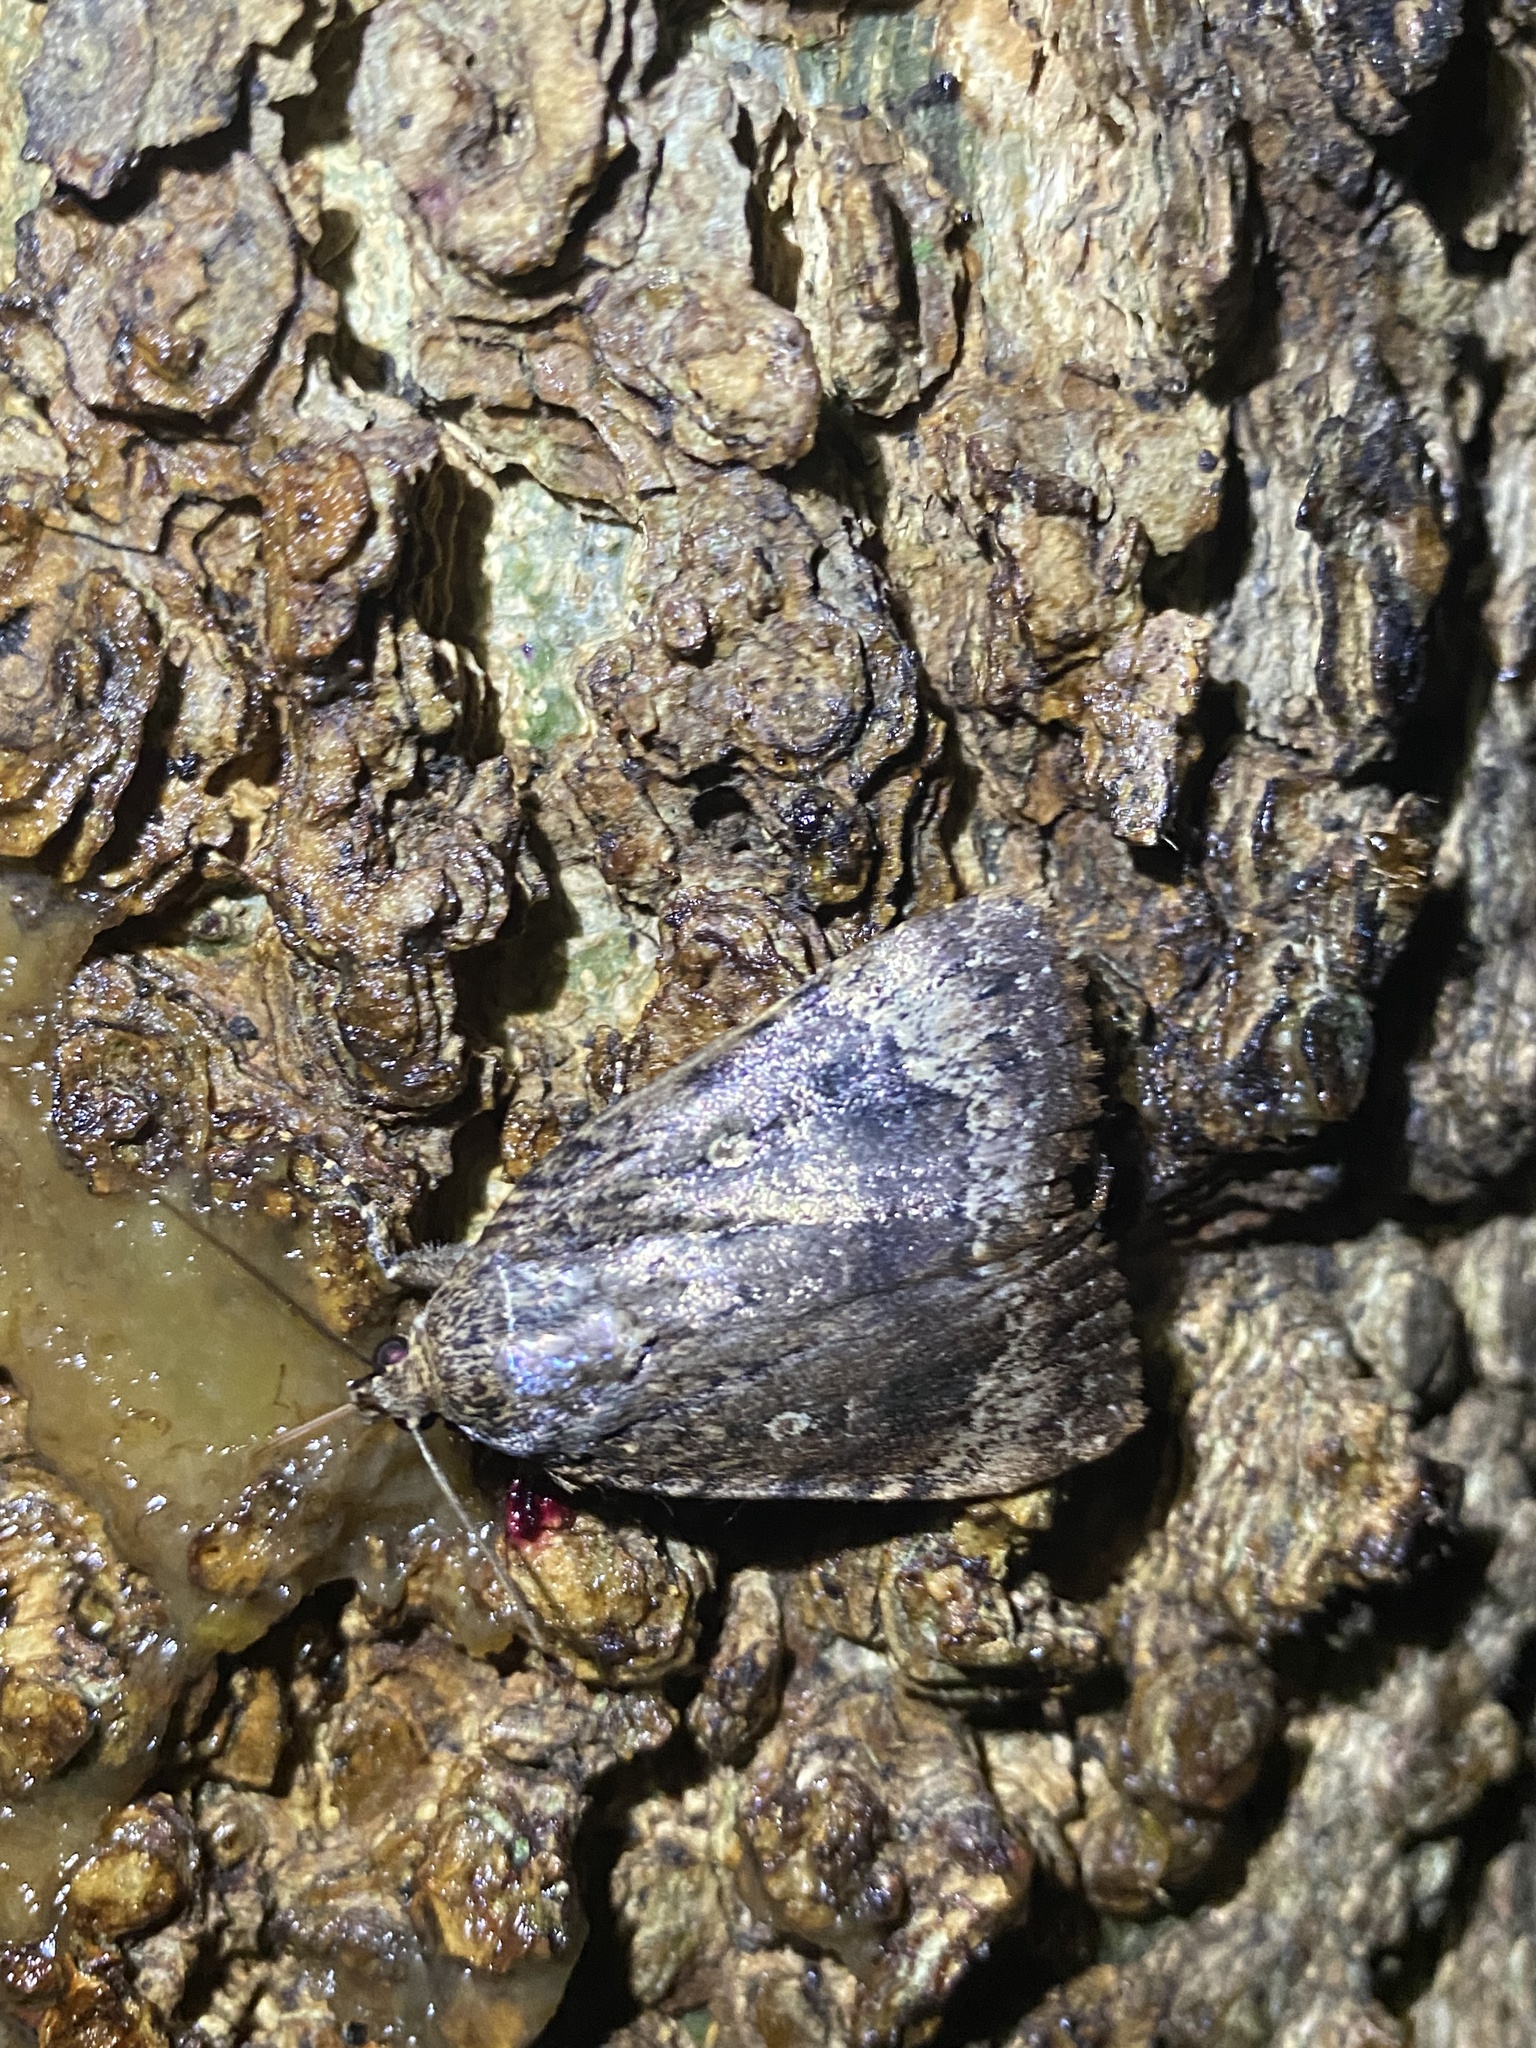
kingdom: Animalia
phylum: Arthropoda
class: Insecta
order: Lepidoptera
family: Noctuidae
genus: Amphipyra
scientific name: Amphipyra pyramidoides
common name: American copper underwing
